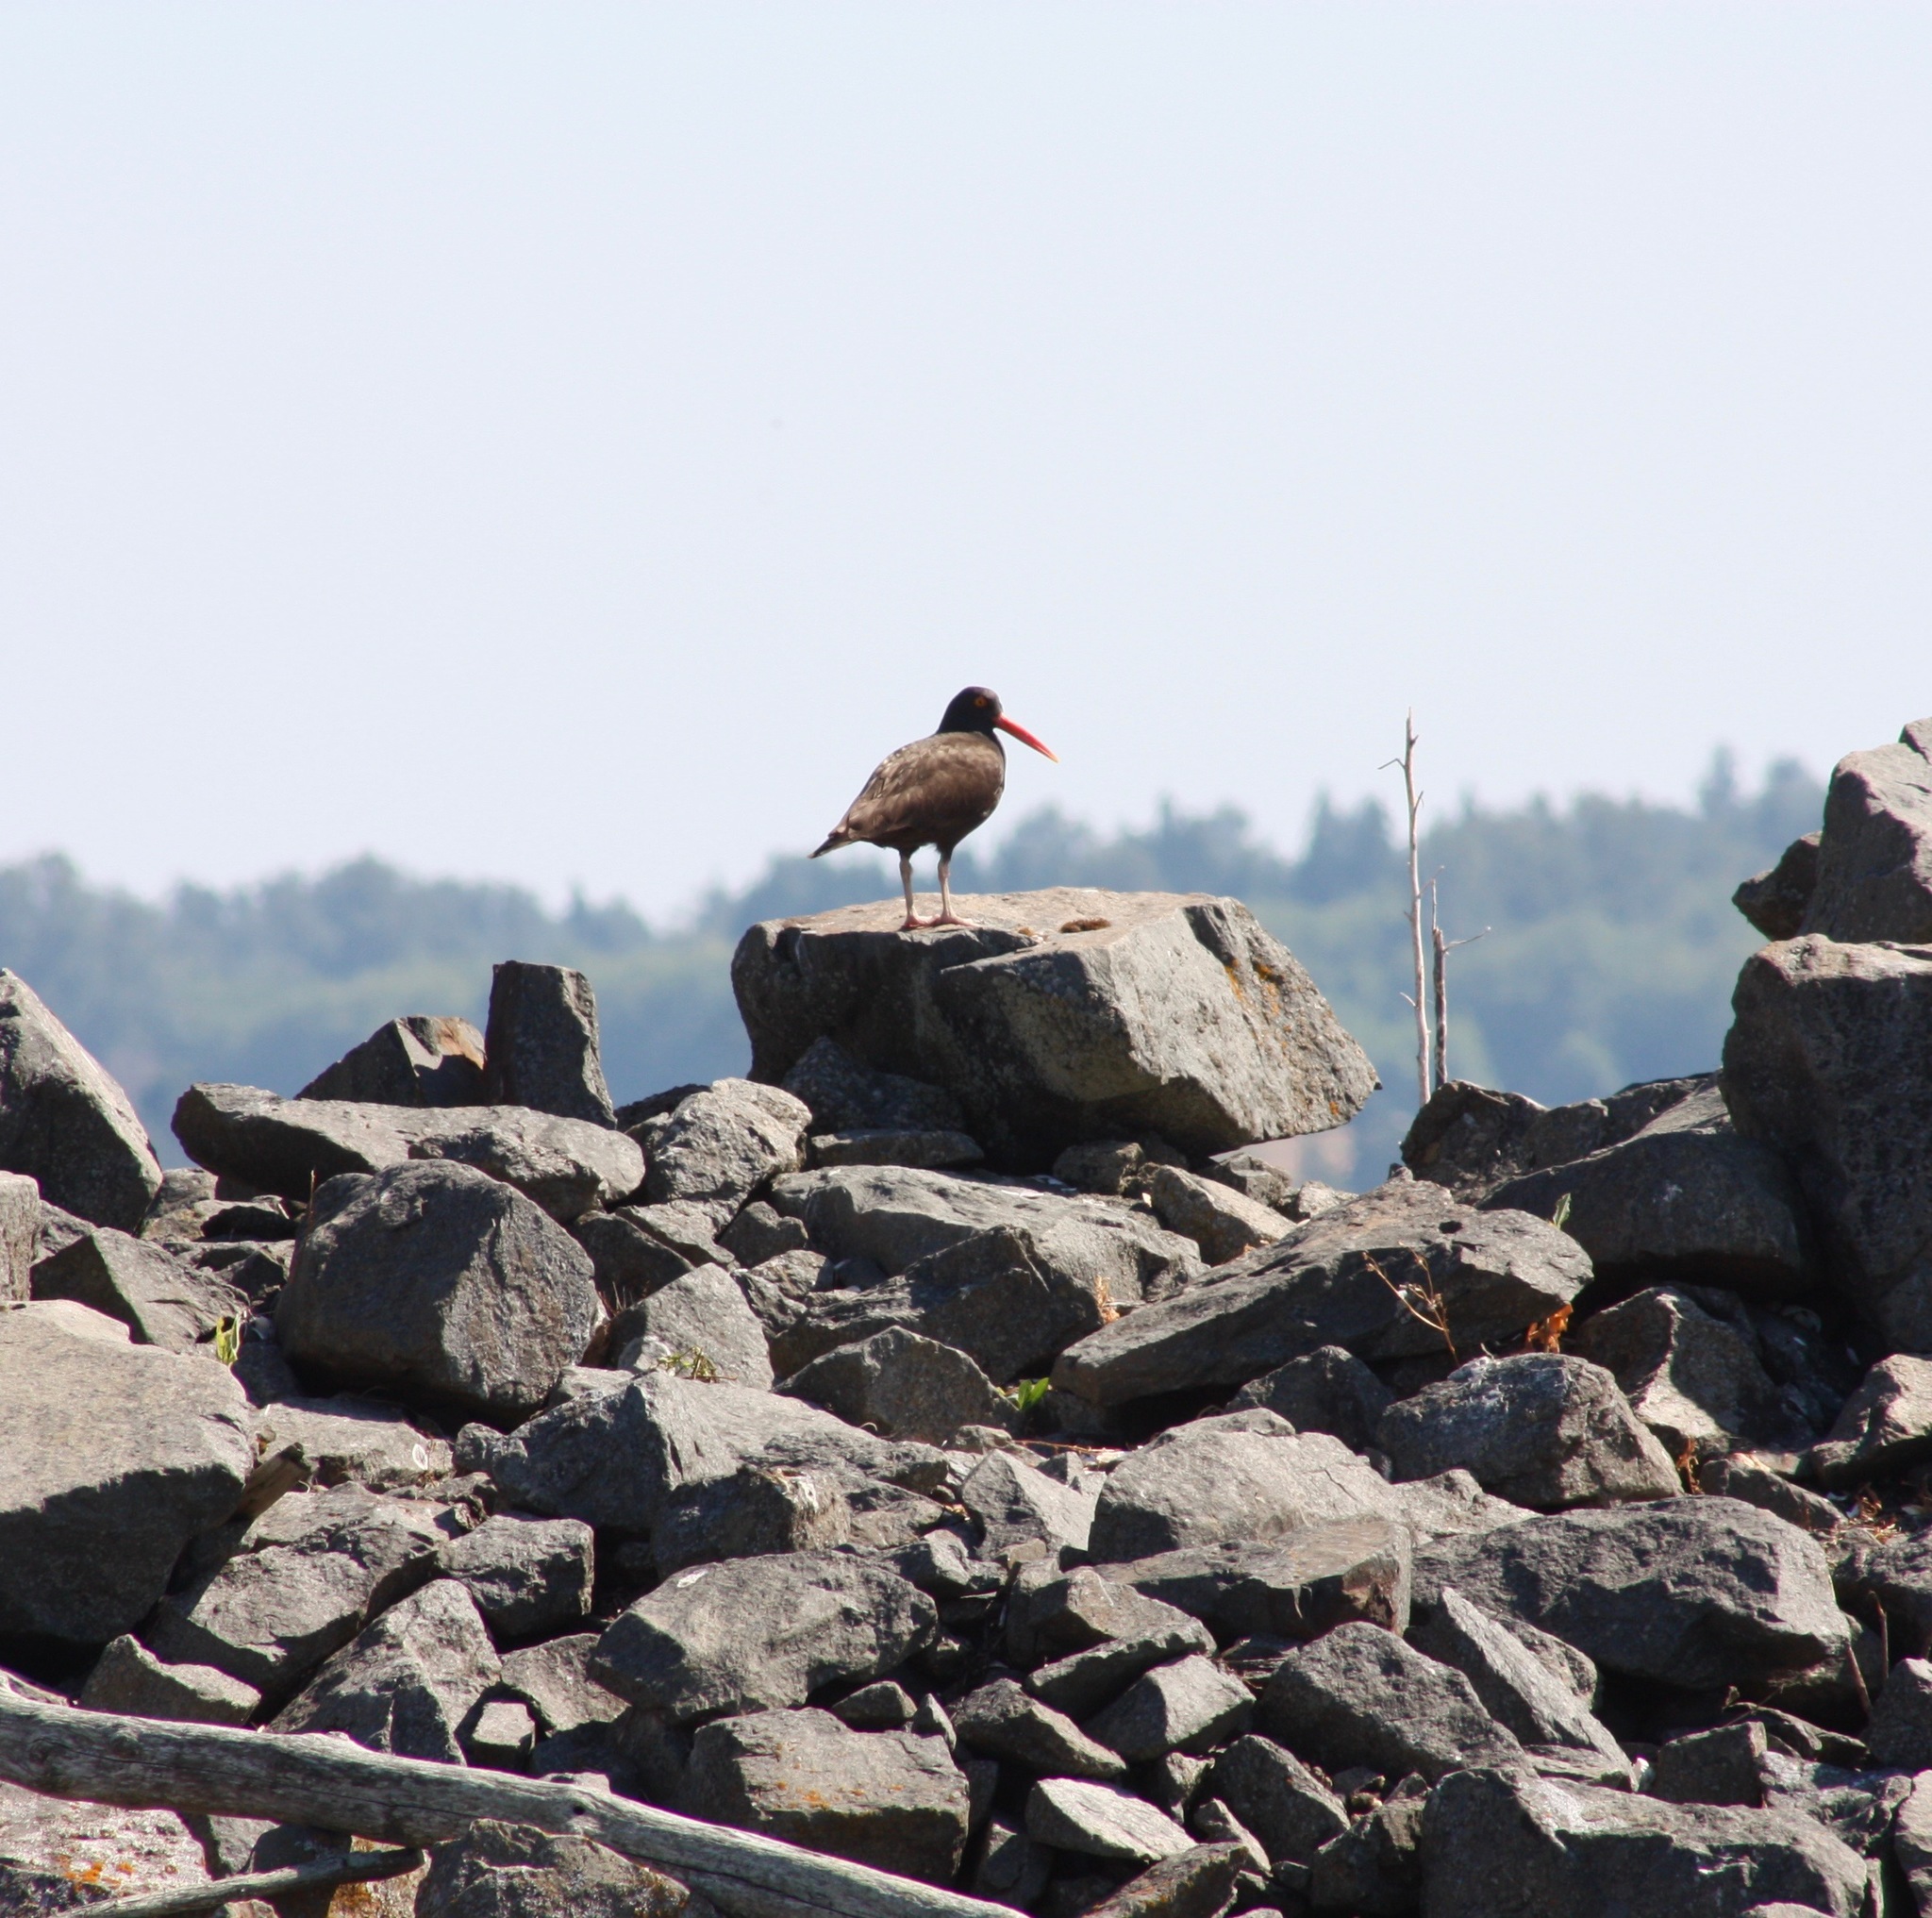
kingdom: Animalia
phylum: Chordata
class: Aves
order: Charadriiformes
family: Haematopodidae
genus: Haematopus
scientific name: Haematopus bachmani
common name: Black oystercatcher
